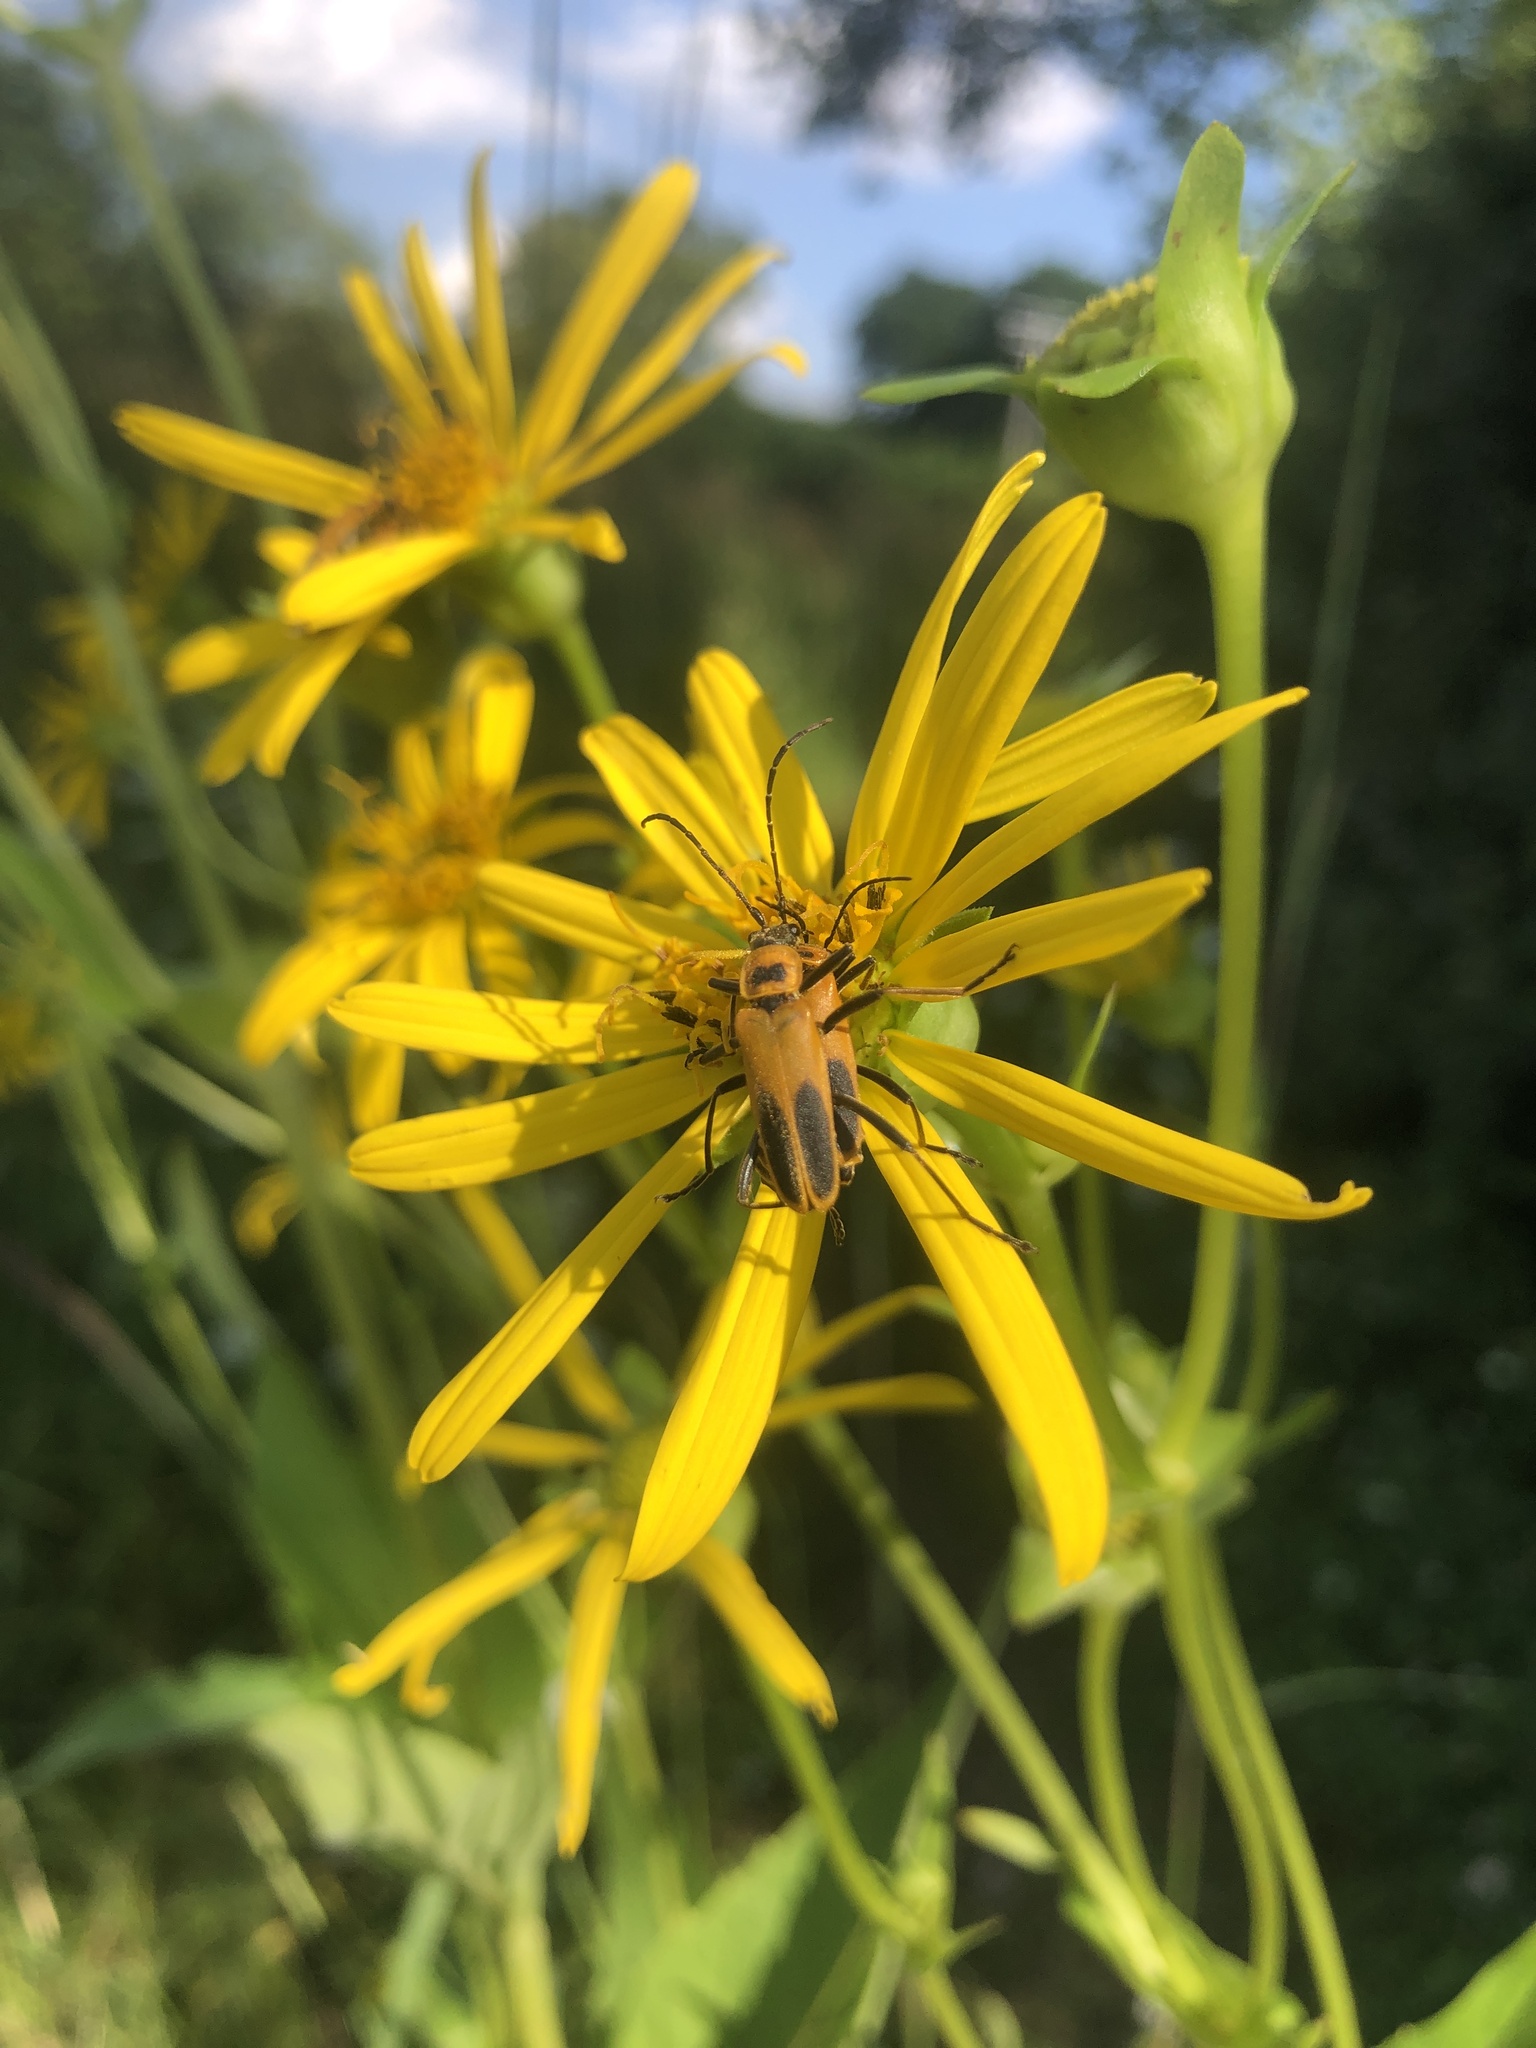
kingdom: Animalia
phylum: Arthropoda
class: Insecta
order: Coleoptera
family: Cantharidae
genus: Chauliognathus
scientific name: Chauliognathus pensylvanicus
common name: Goldenrod soldier beetle
